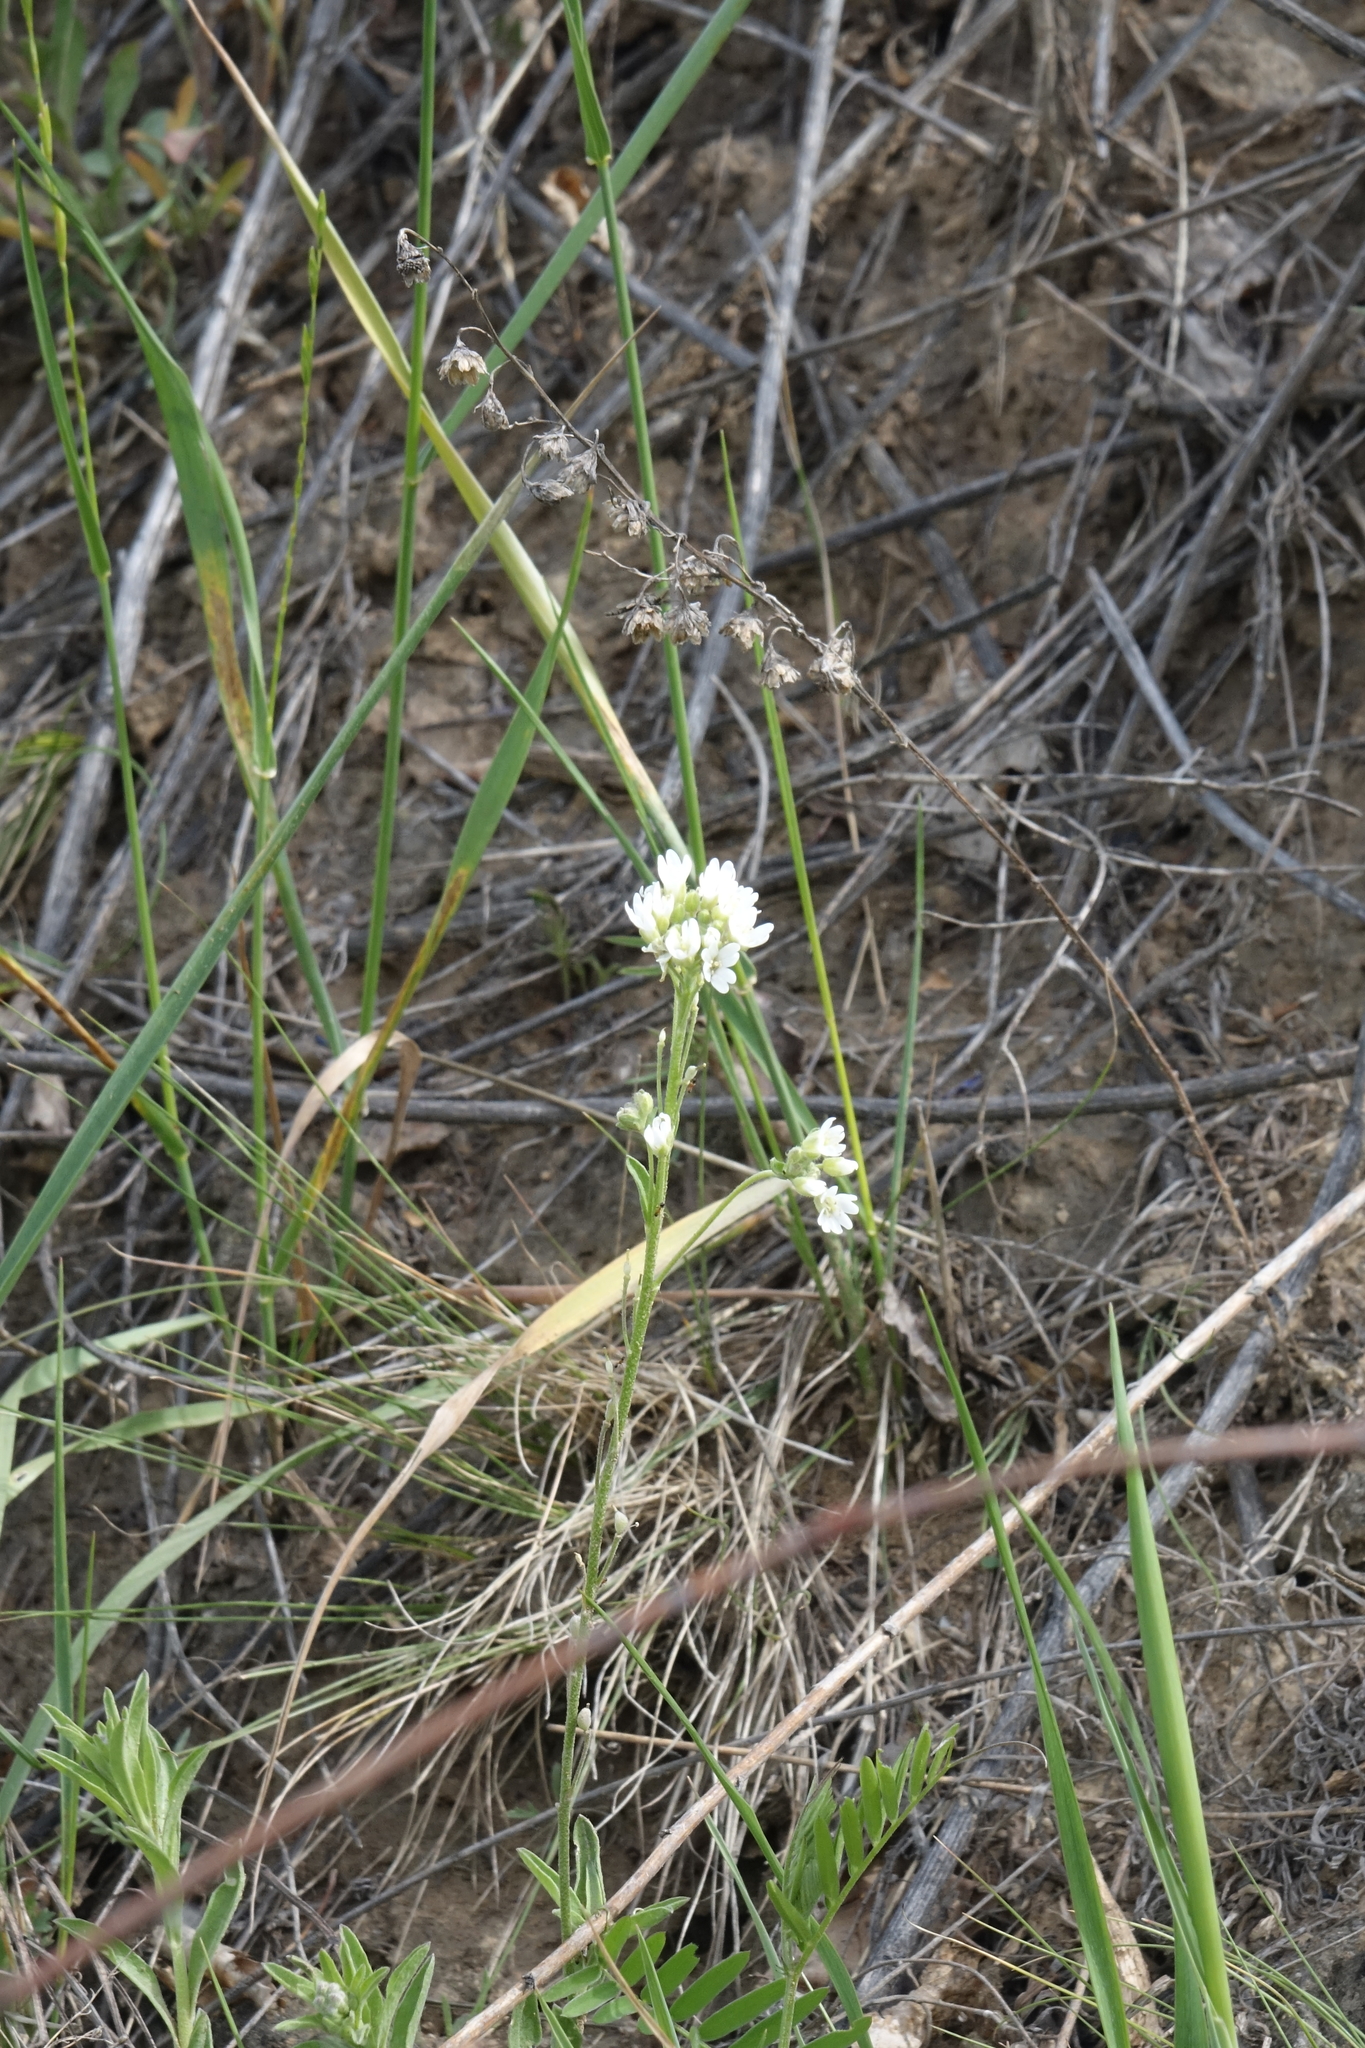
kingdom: Plantae
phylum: Tracheophyta
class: Magnoliopsida
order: Brassicales
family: Brassicaceae
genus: Berteroa
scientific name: Berteroa incana
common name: Hoary alison
